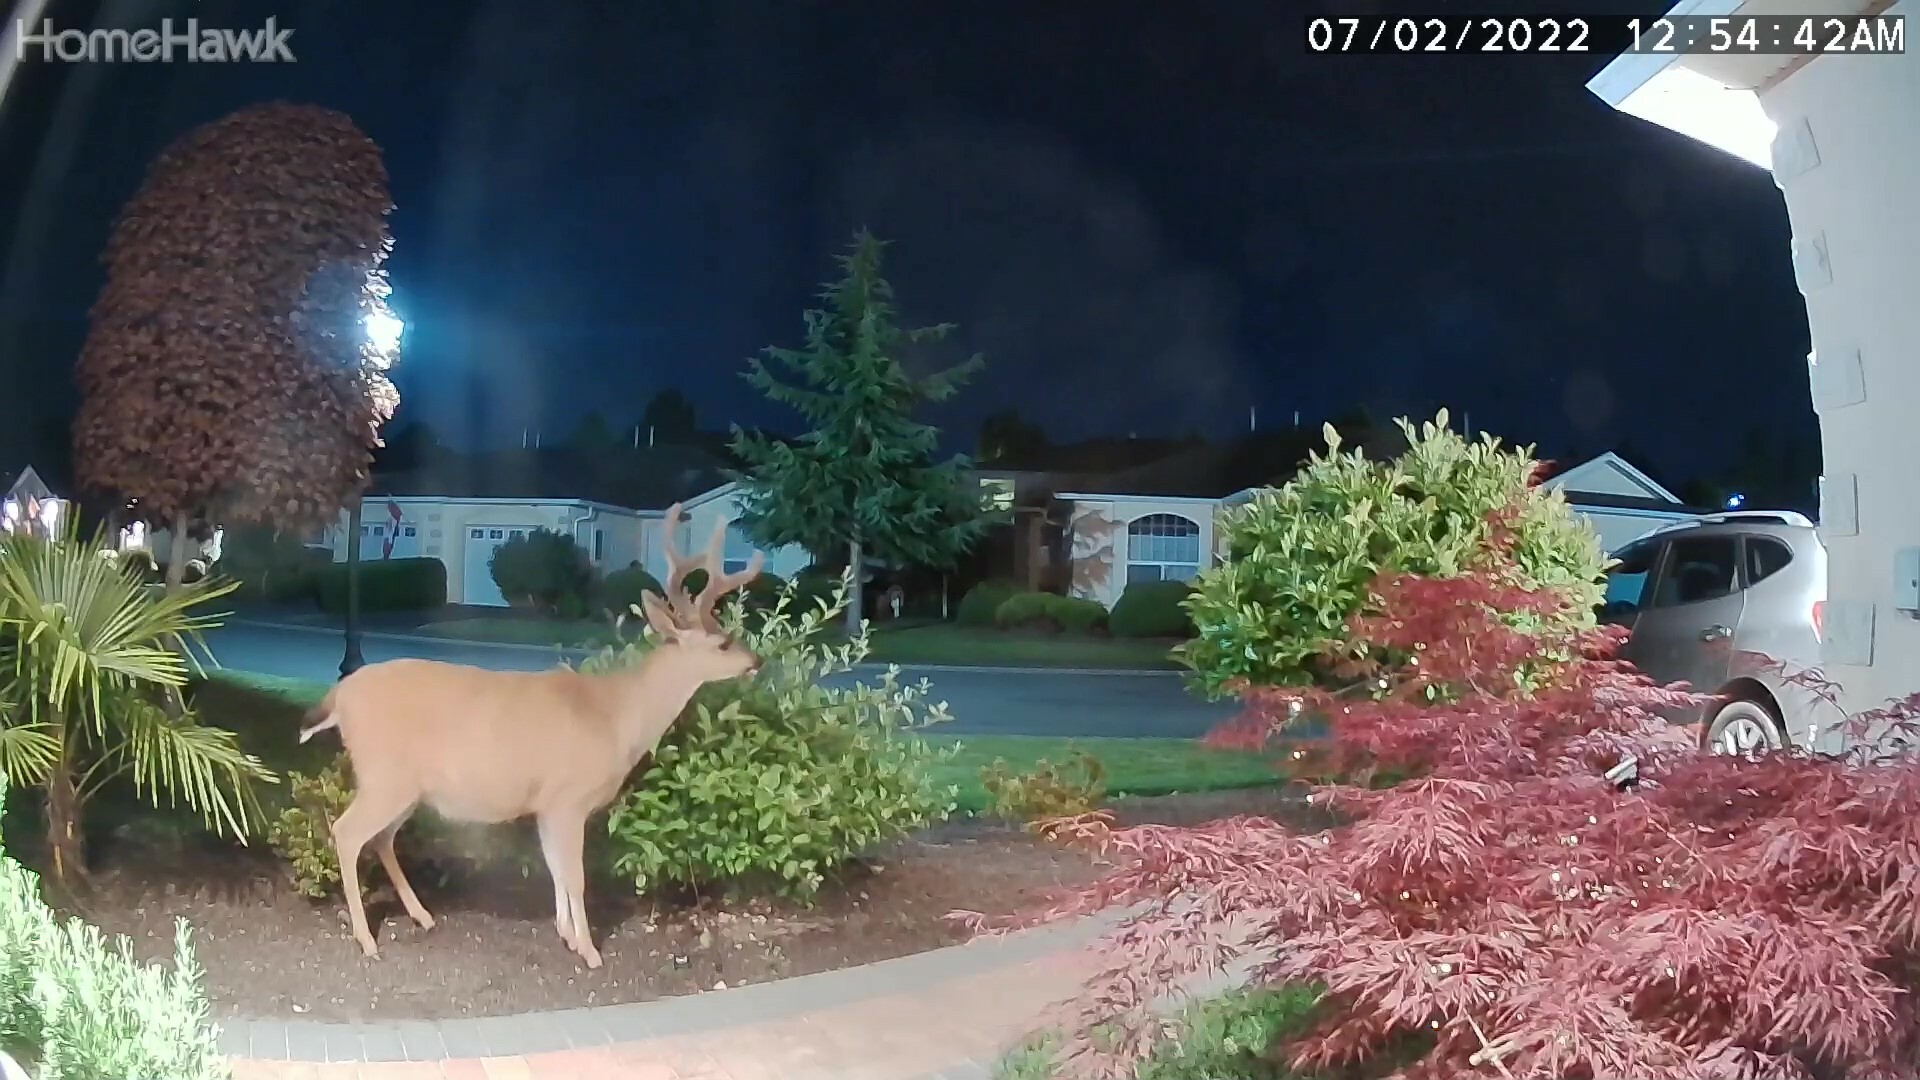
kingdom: Animalia
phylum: Chordata
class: Mammalia
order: Artiodactyla
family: Cervidae
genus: Odocoileus
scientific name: Odocoileus hemionus
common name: Mule deer
